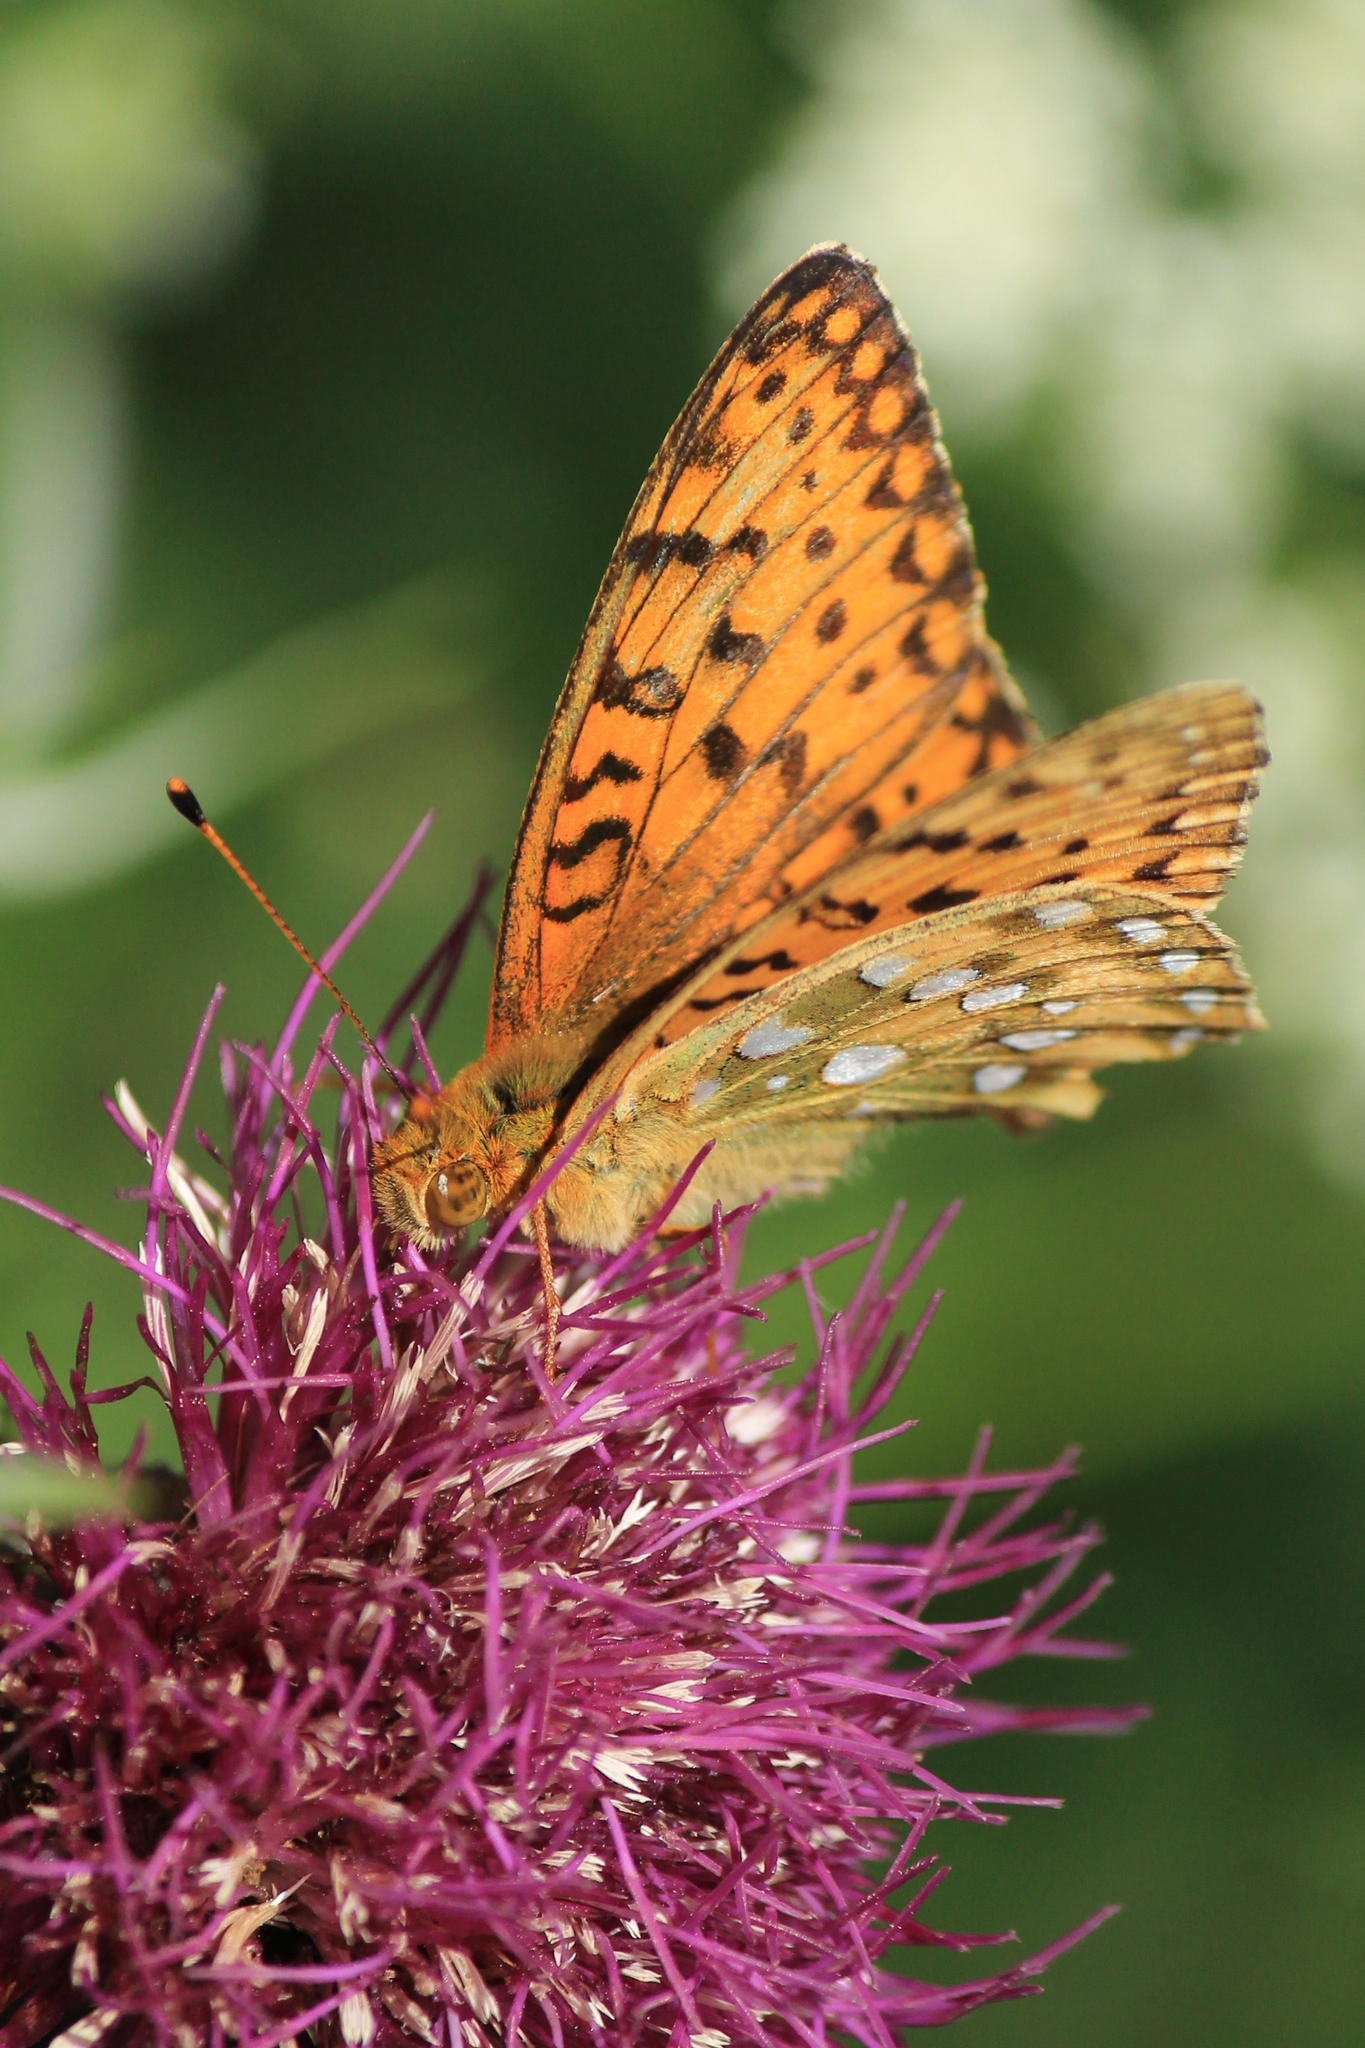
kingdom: Animalia
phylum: Arthropoda
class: Insecta
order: Lepidoptera
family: Nymphalidae
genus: Speyeria
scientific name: Speyeria aglaja
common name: Dark green fritillary
